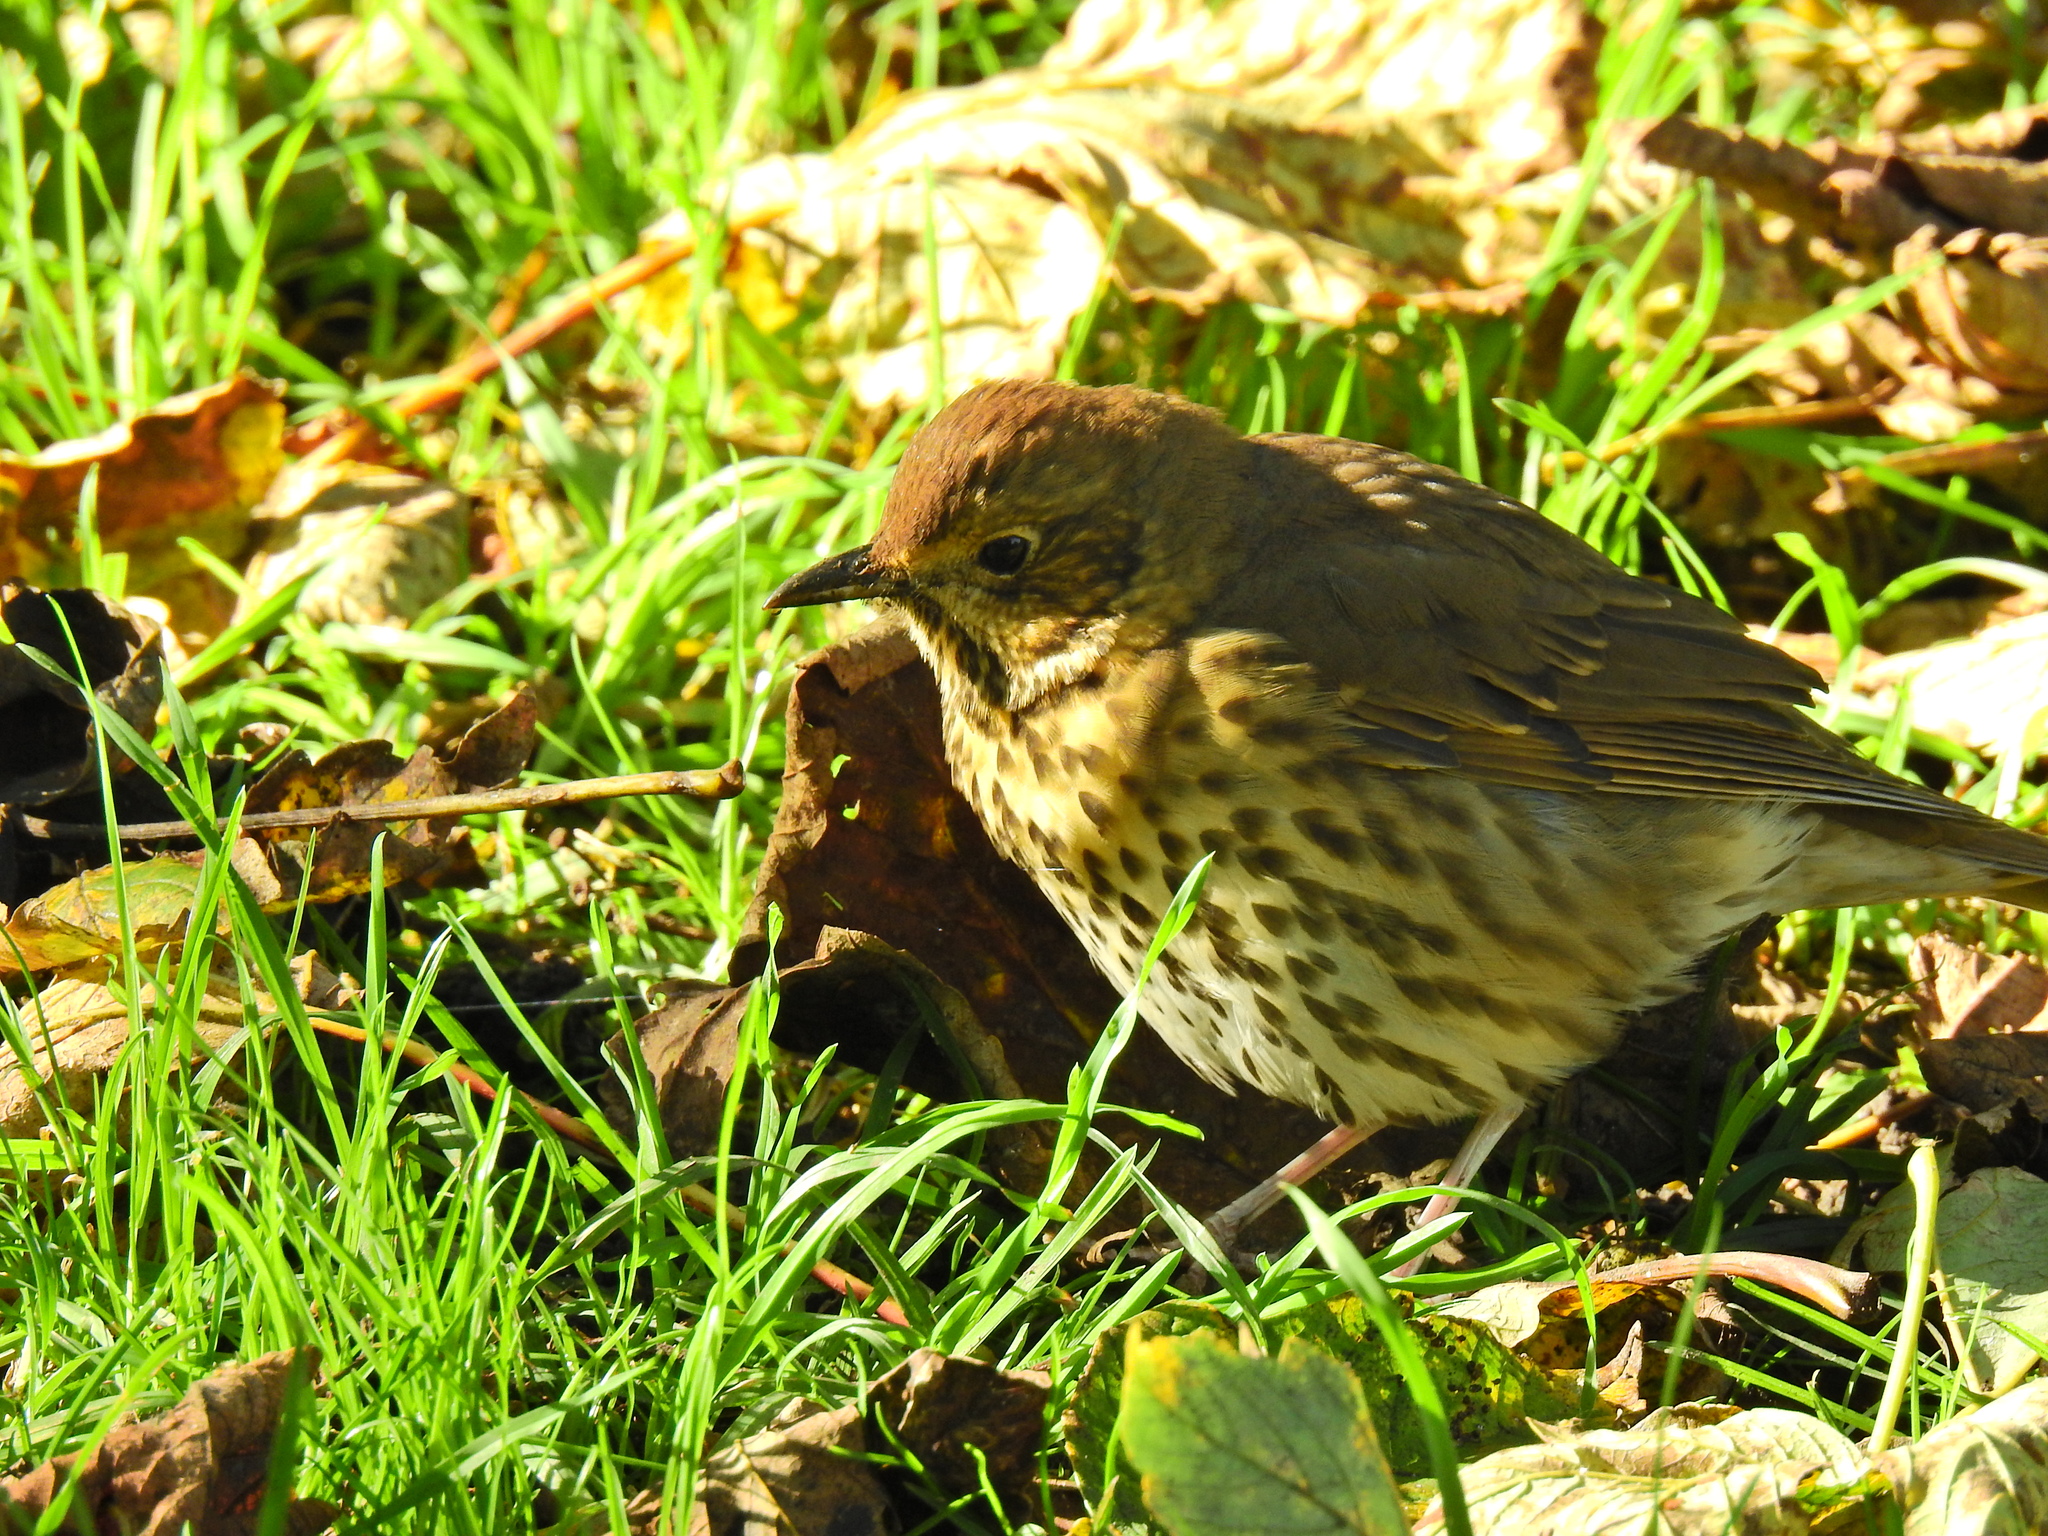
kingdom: Animalia
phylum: Chordata
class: Aves
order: Passeriformes
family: Turdidae
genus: Turdus
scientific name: Turdus philomelos
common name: Song thrush
